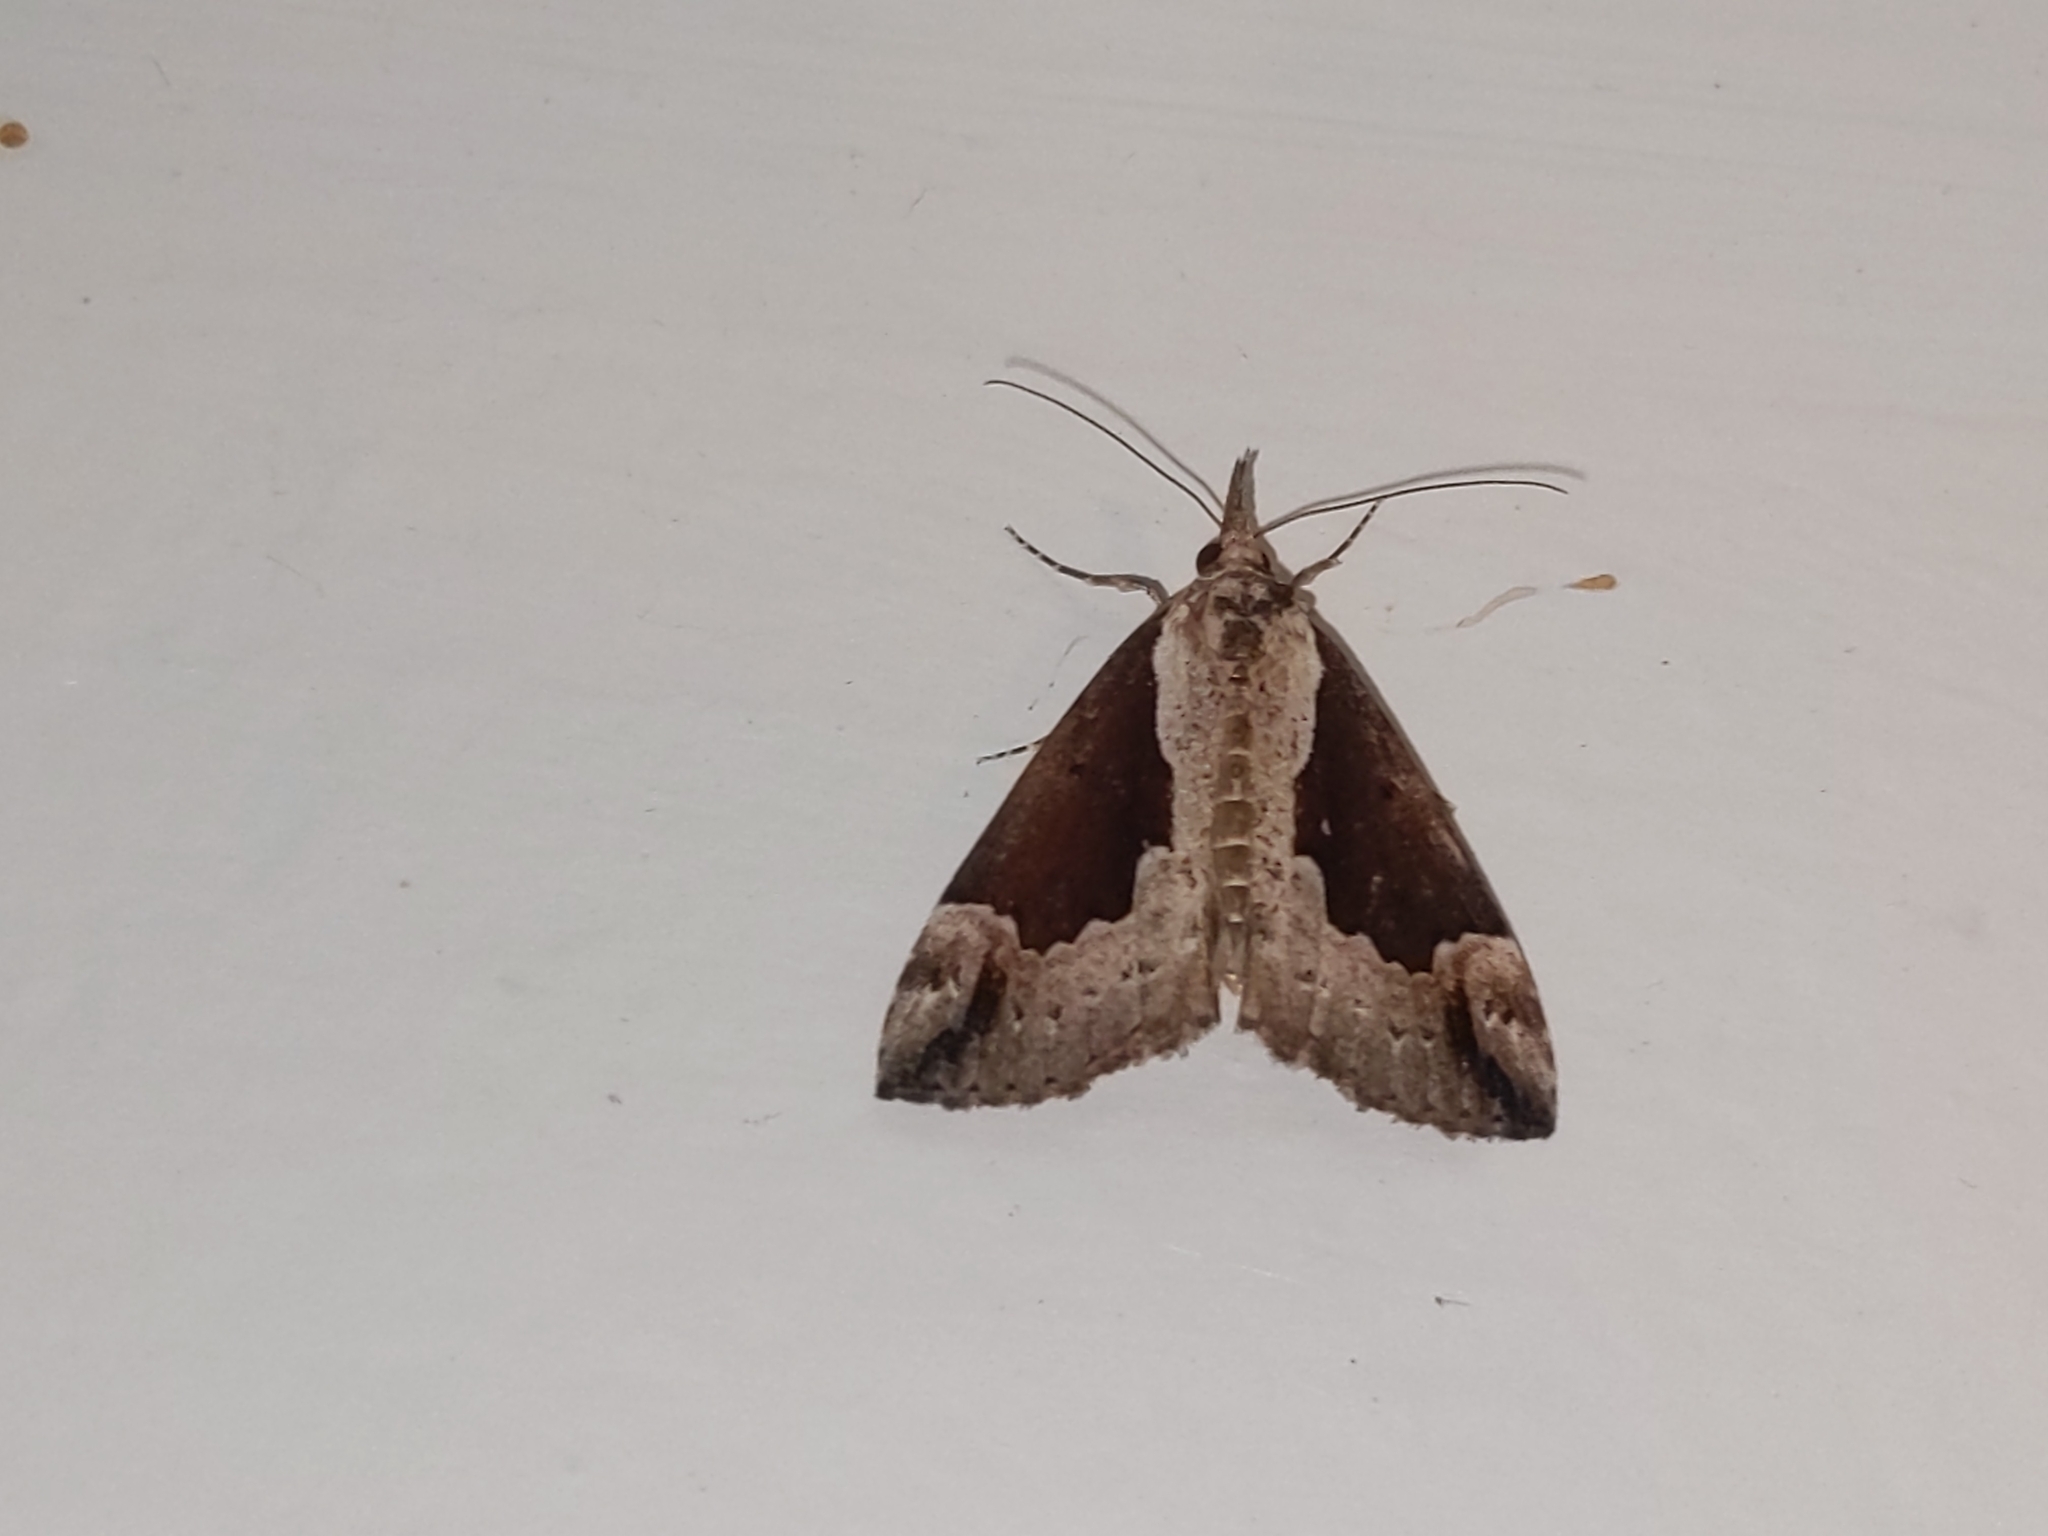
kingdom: Animalia
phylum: Arthropoda
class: Insecta
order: Lepidoptera
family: Erebidae
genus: Hypena
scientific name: Hypena baltimoralis
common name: Baltimore snout
